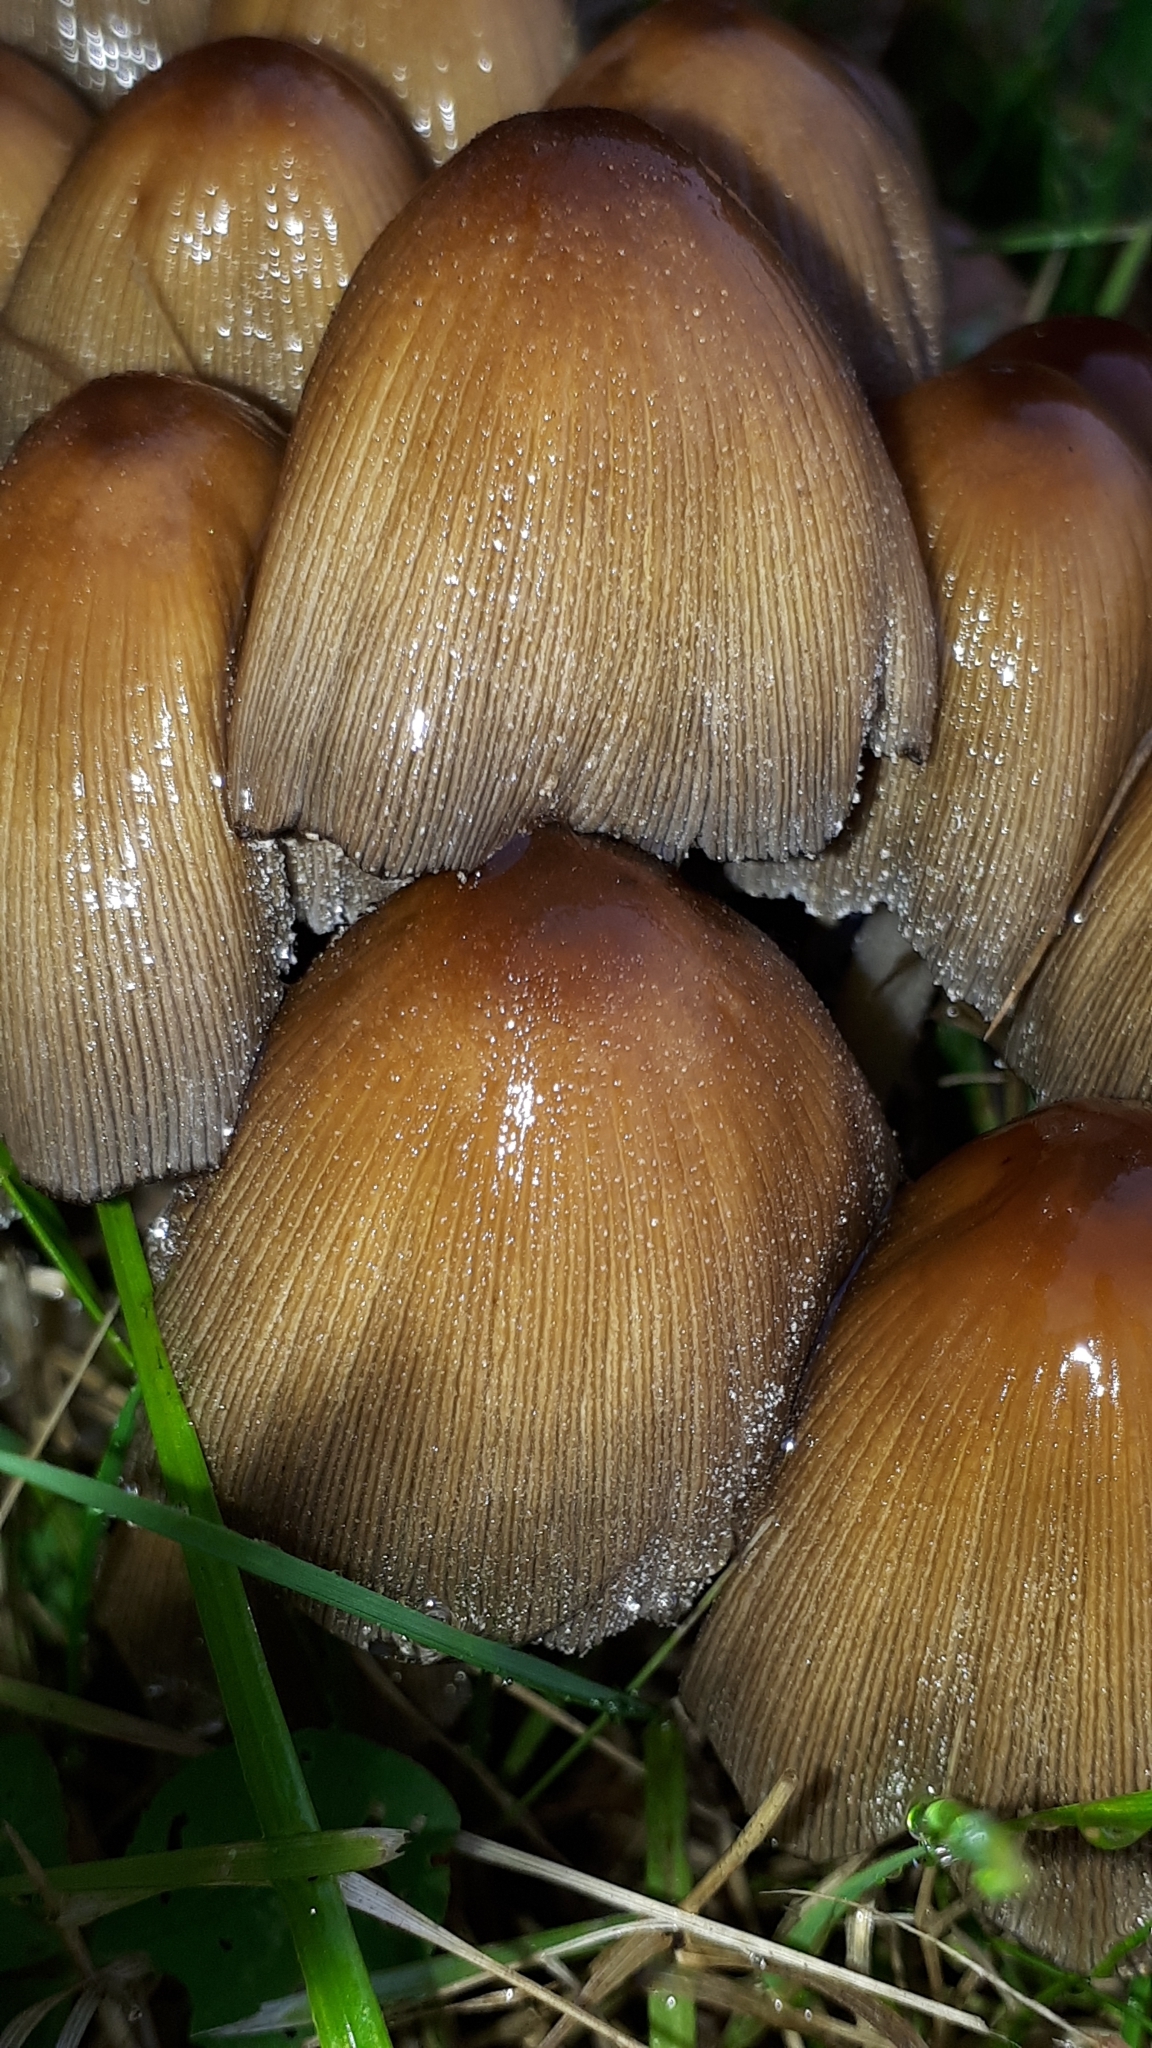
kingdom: Fungi
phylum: Basidiomycota
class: Agaricomycetes
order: Agaricales
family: Psathyrellaceae
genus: Coprinellus
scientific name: Coprinellus micaceus
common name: Glistening ink-cap
